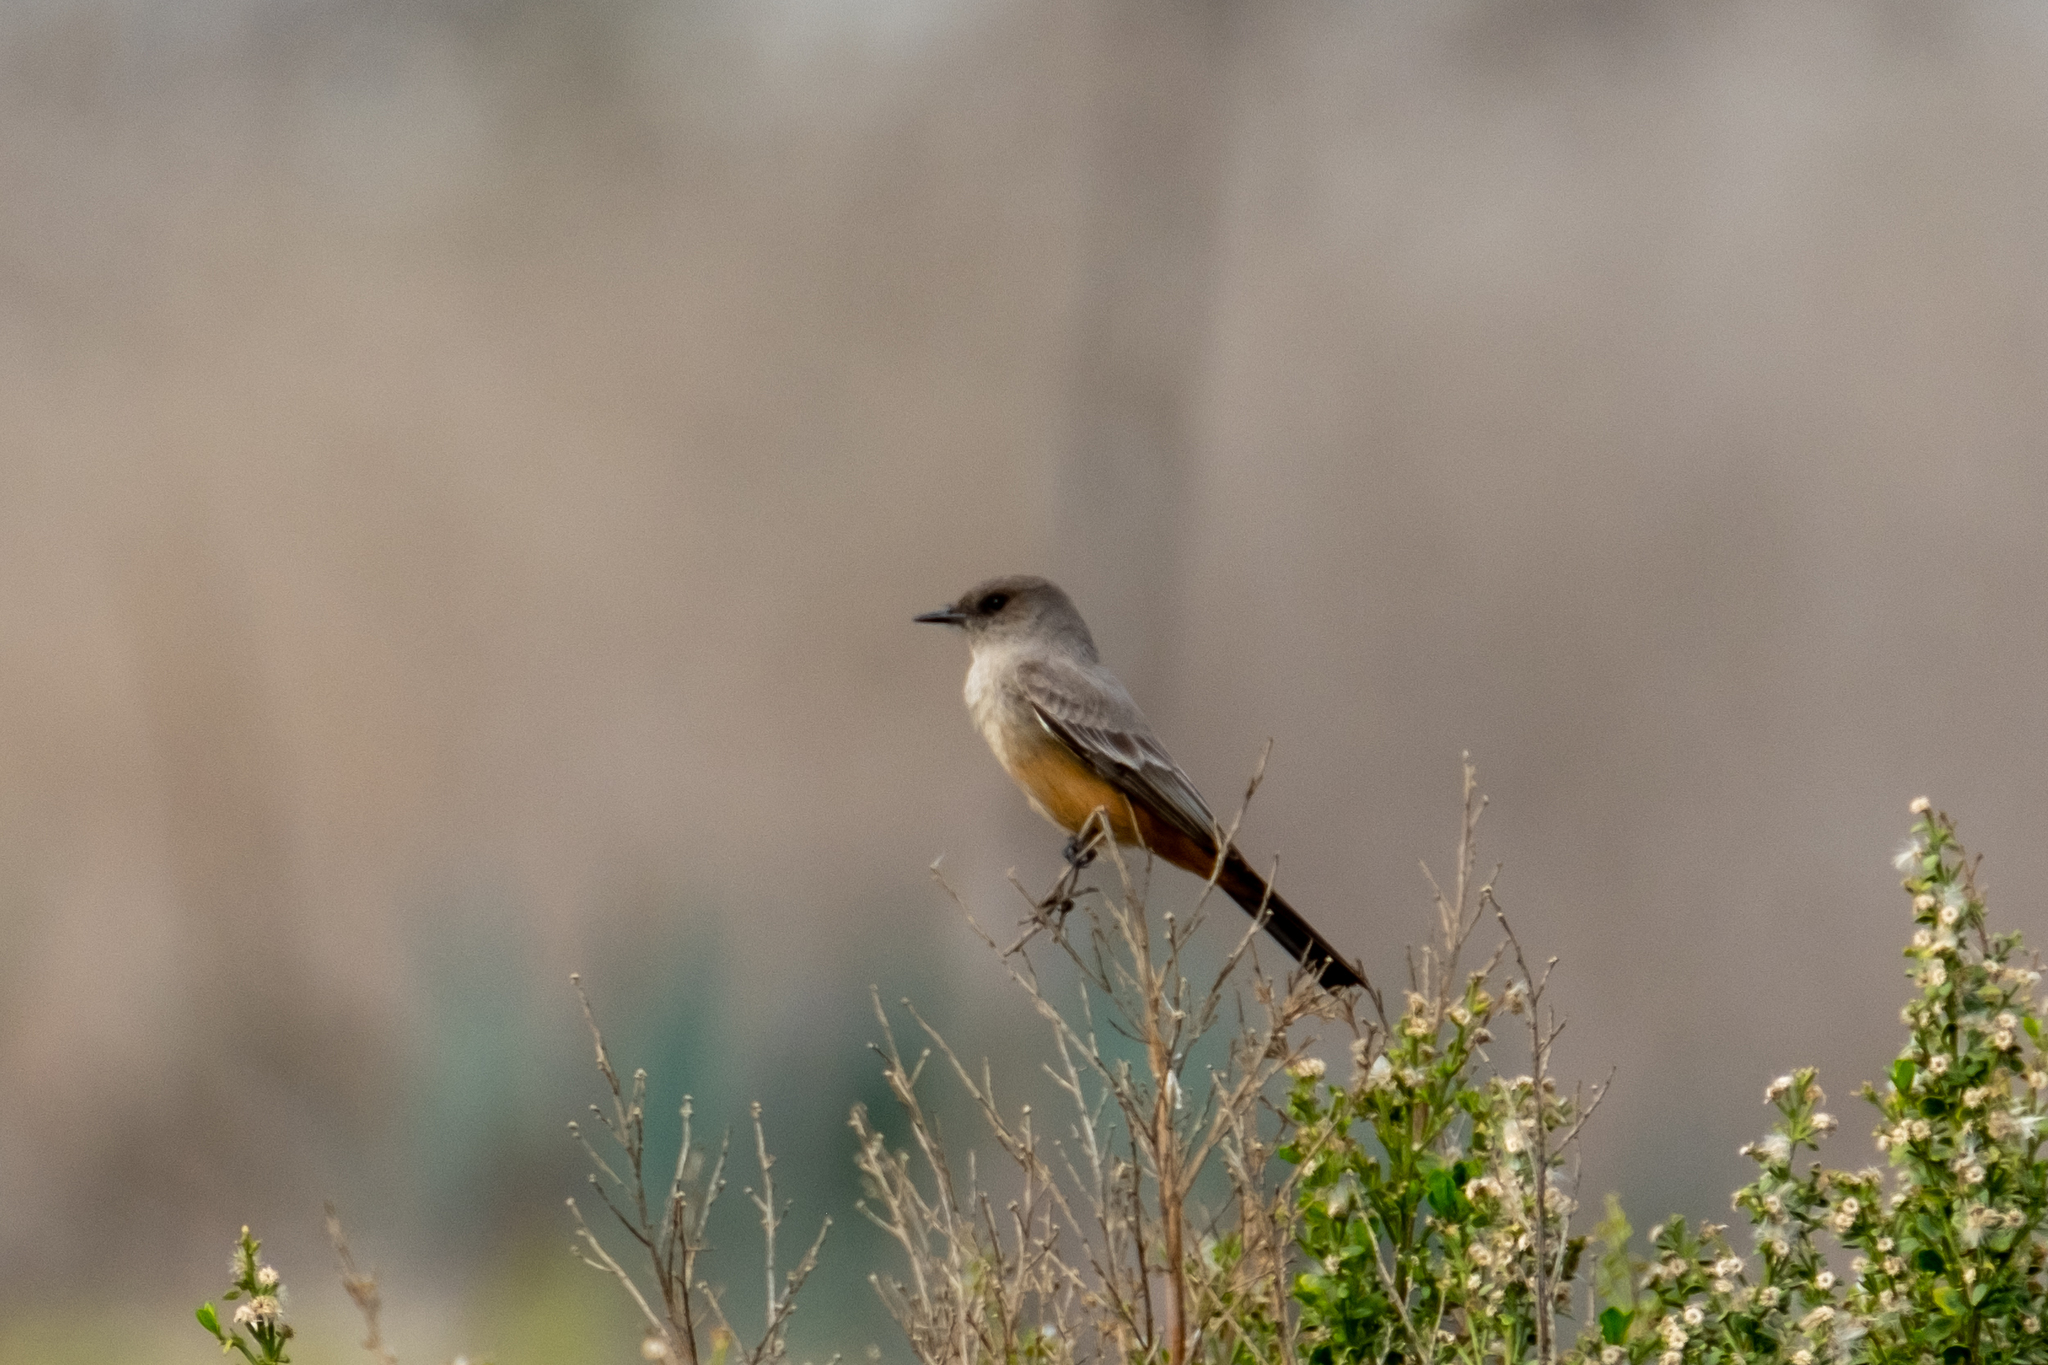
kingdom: Animalia
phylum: Chordata
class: Aves
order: Passeriformes
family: Tyrannidae
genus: Sayornis
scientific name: Sayornis saya
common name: Say's phoebe
